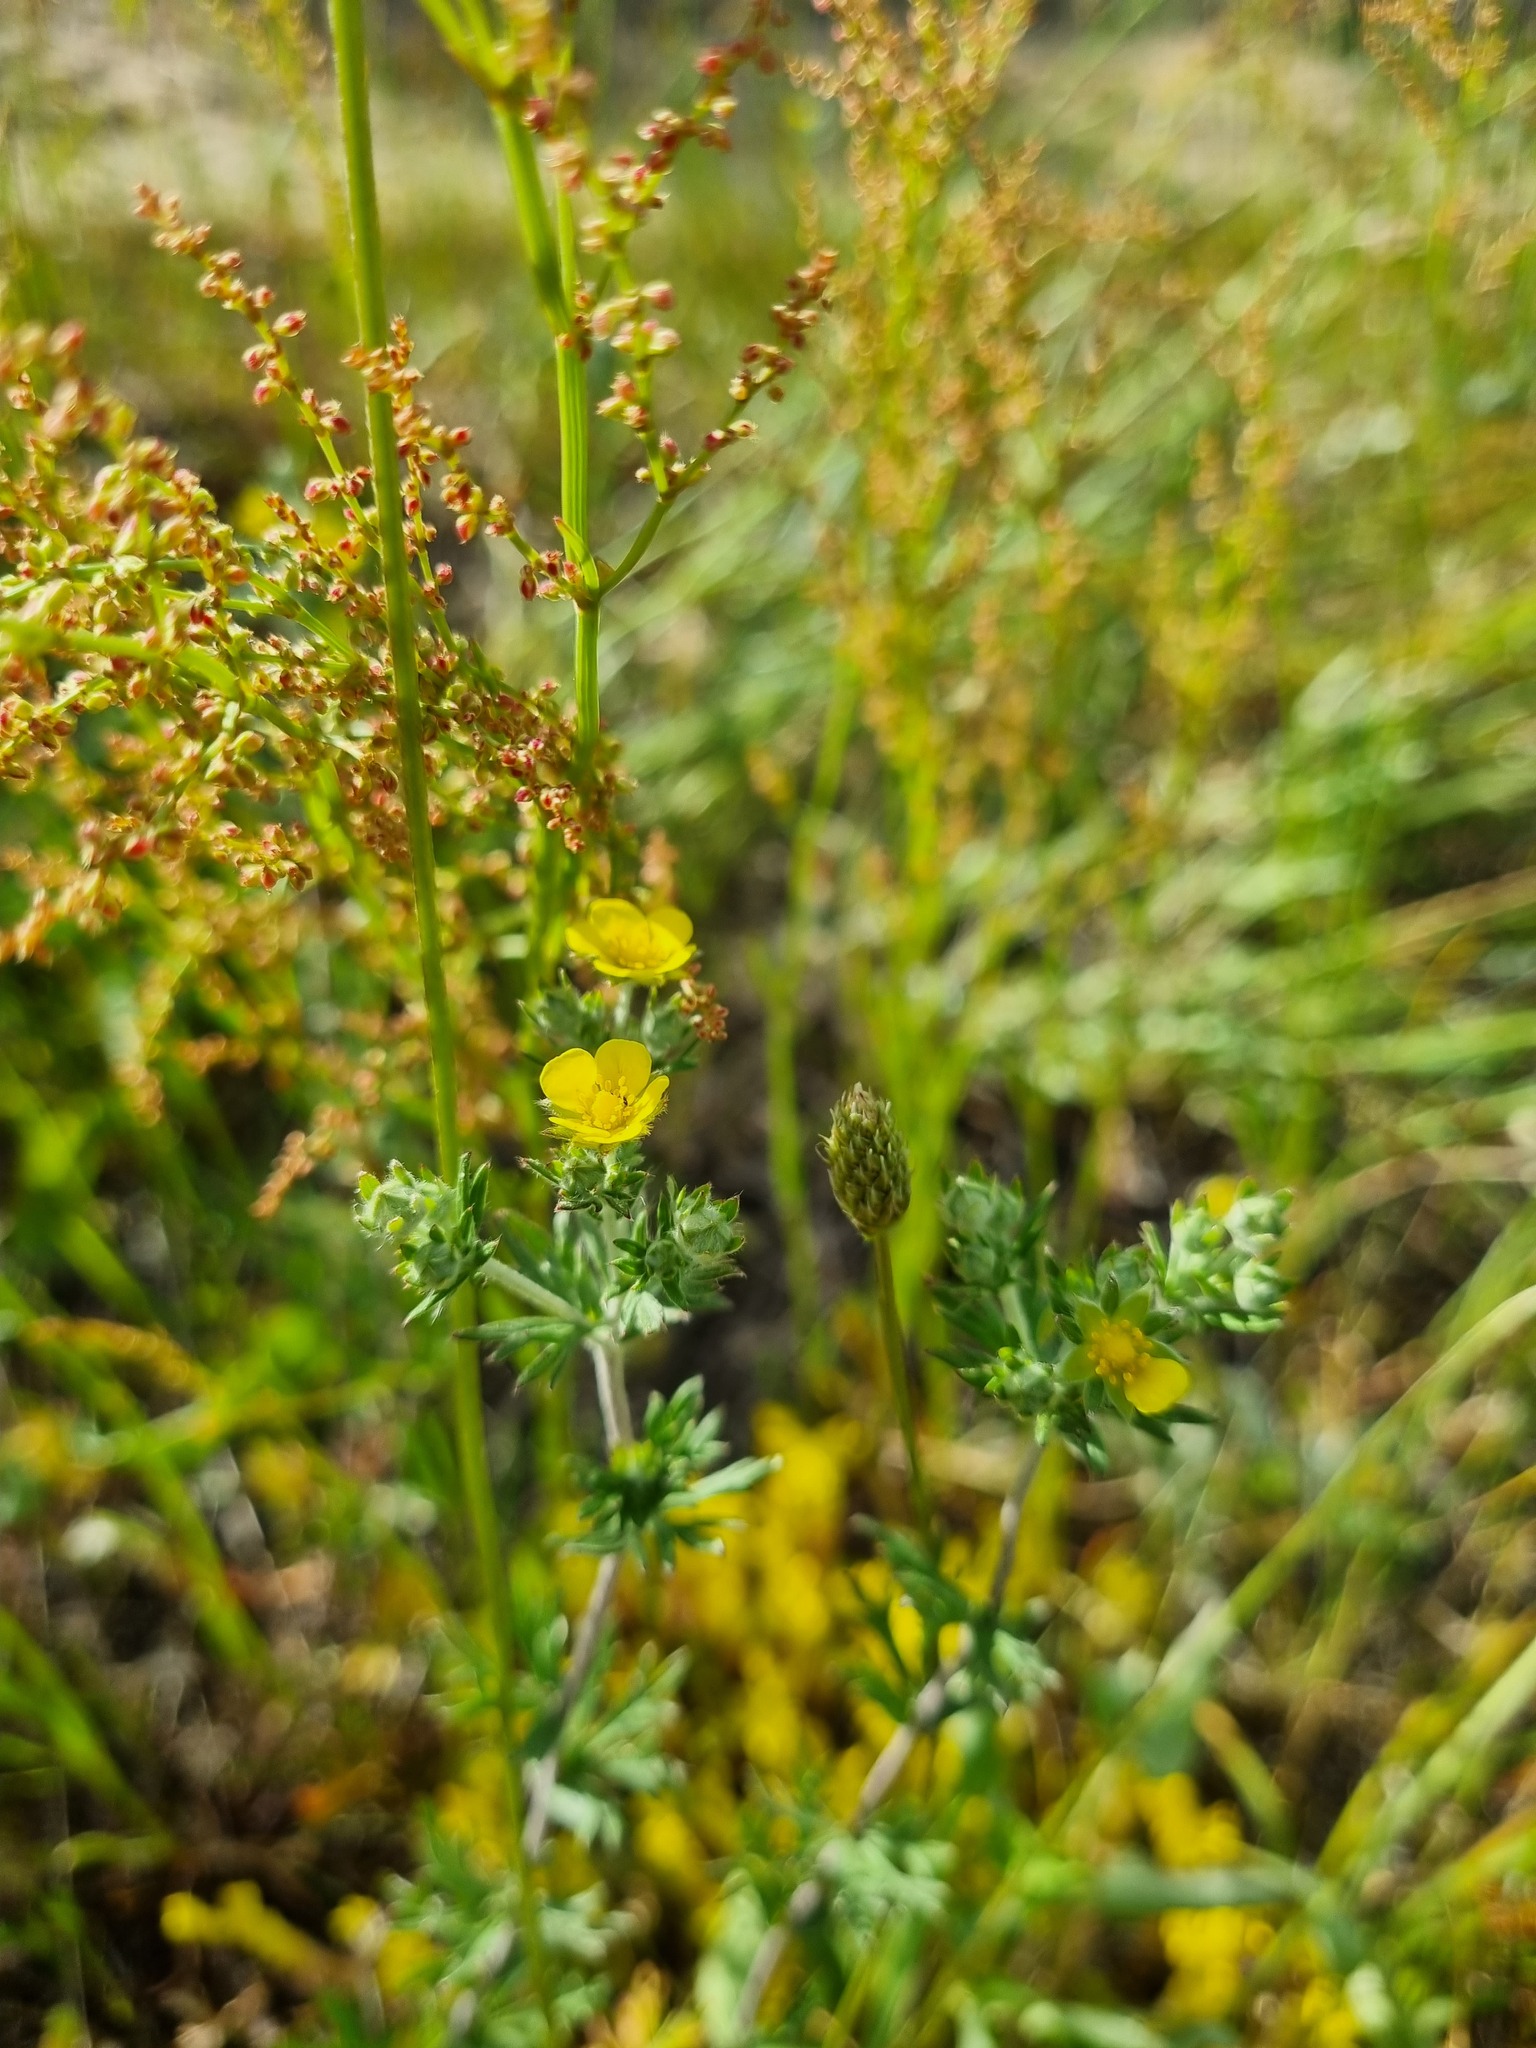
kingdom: Plantae
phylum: Tracheophyta
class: Magnoliopsida
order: Rosales
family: Rosaceae
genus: Potentilla
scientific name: Potentilla argentea
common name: Hoary cinquefoil
